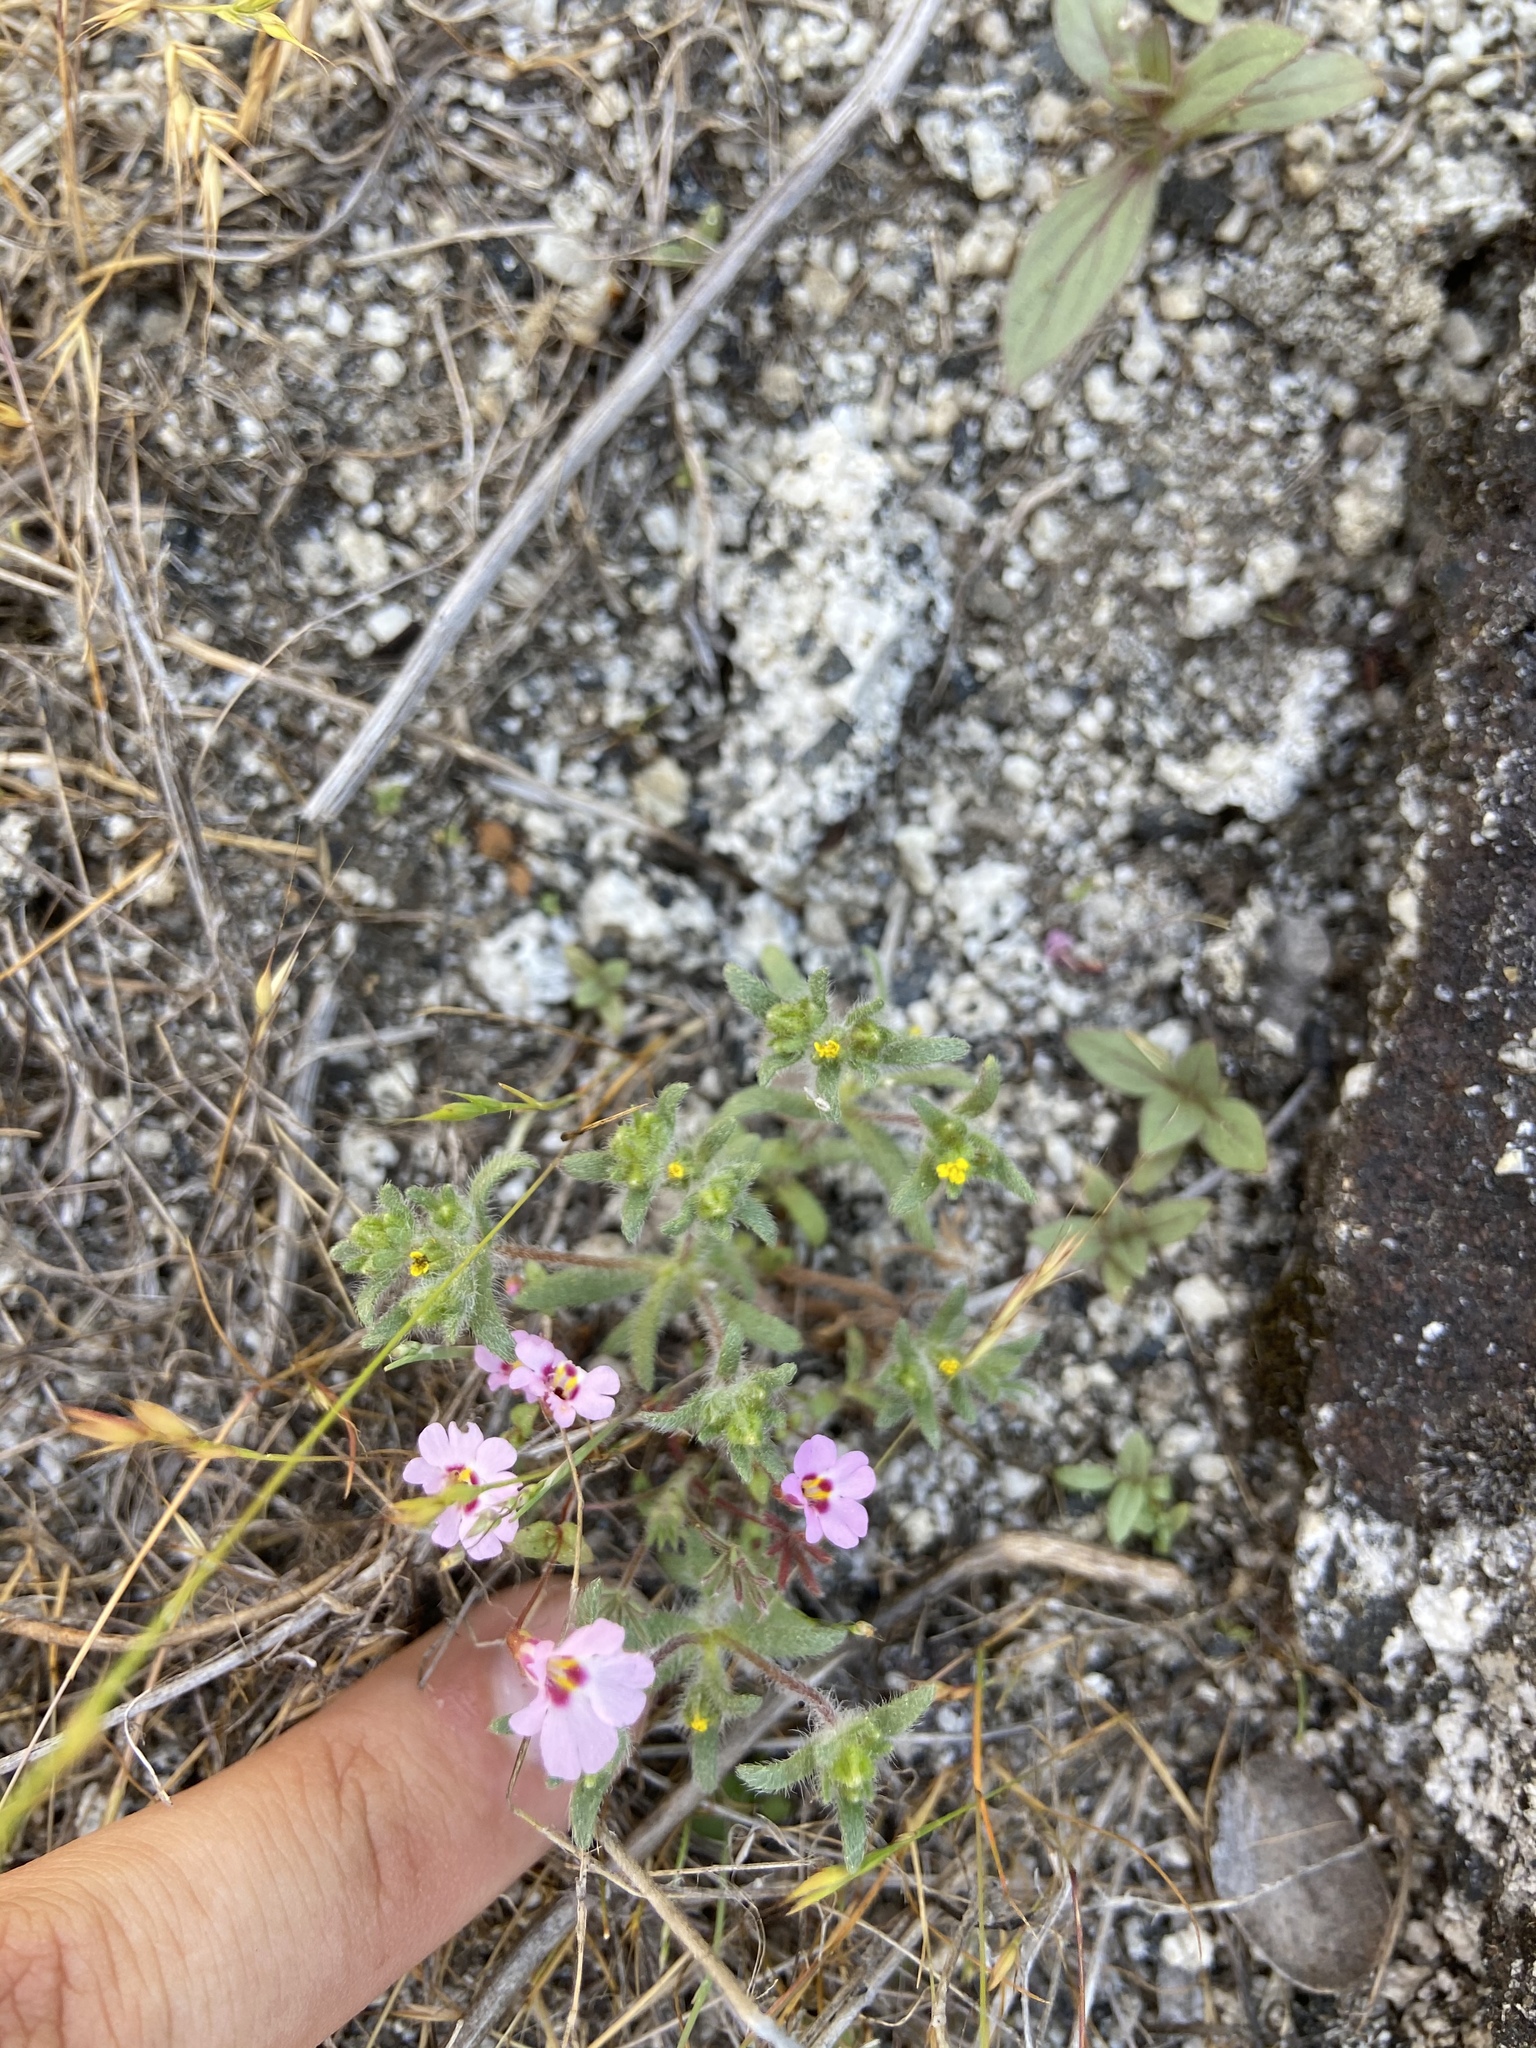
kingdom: Plantae
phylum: Tracheophyta
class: Magnoliopsida
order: Lamiales
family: Phrymaceae
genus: Erythranthe
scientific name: Erythranthe gracilipes
